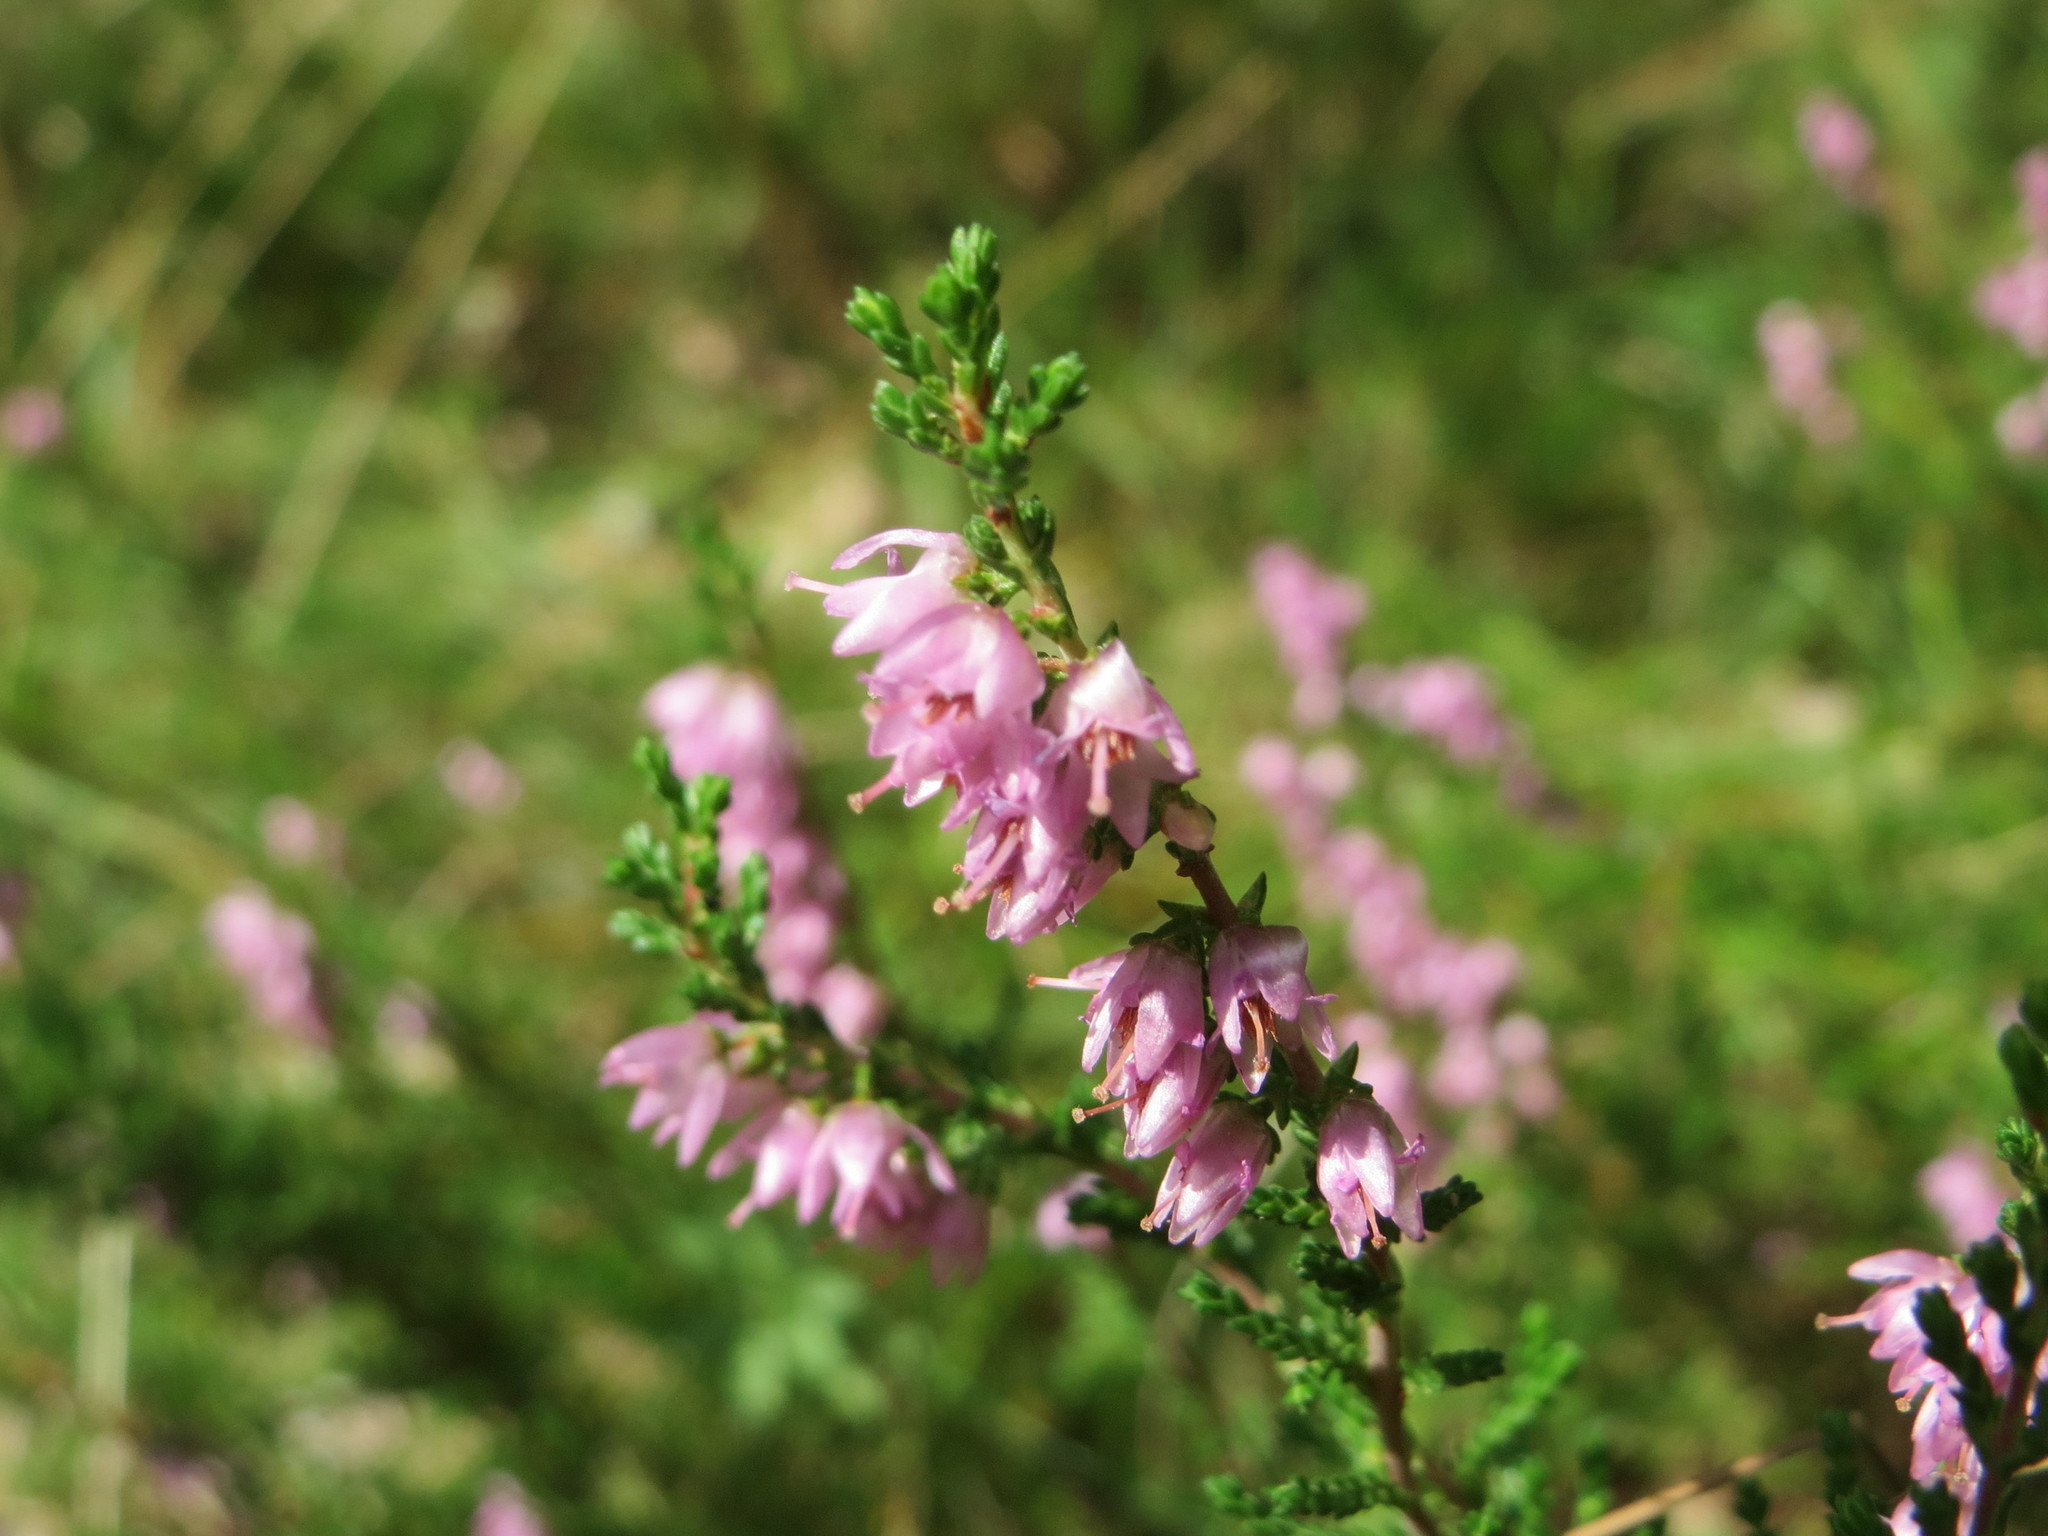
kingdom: Plantae
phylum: Tracheophyta
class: Magnoliopsida
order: Ericales
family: Ericaceae
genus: Calluna
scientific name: Calluna vulgaris
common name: Heather
